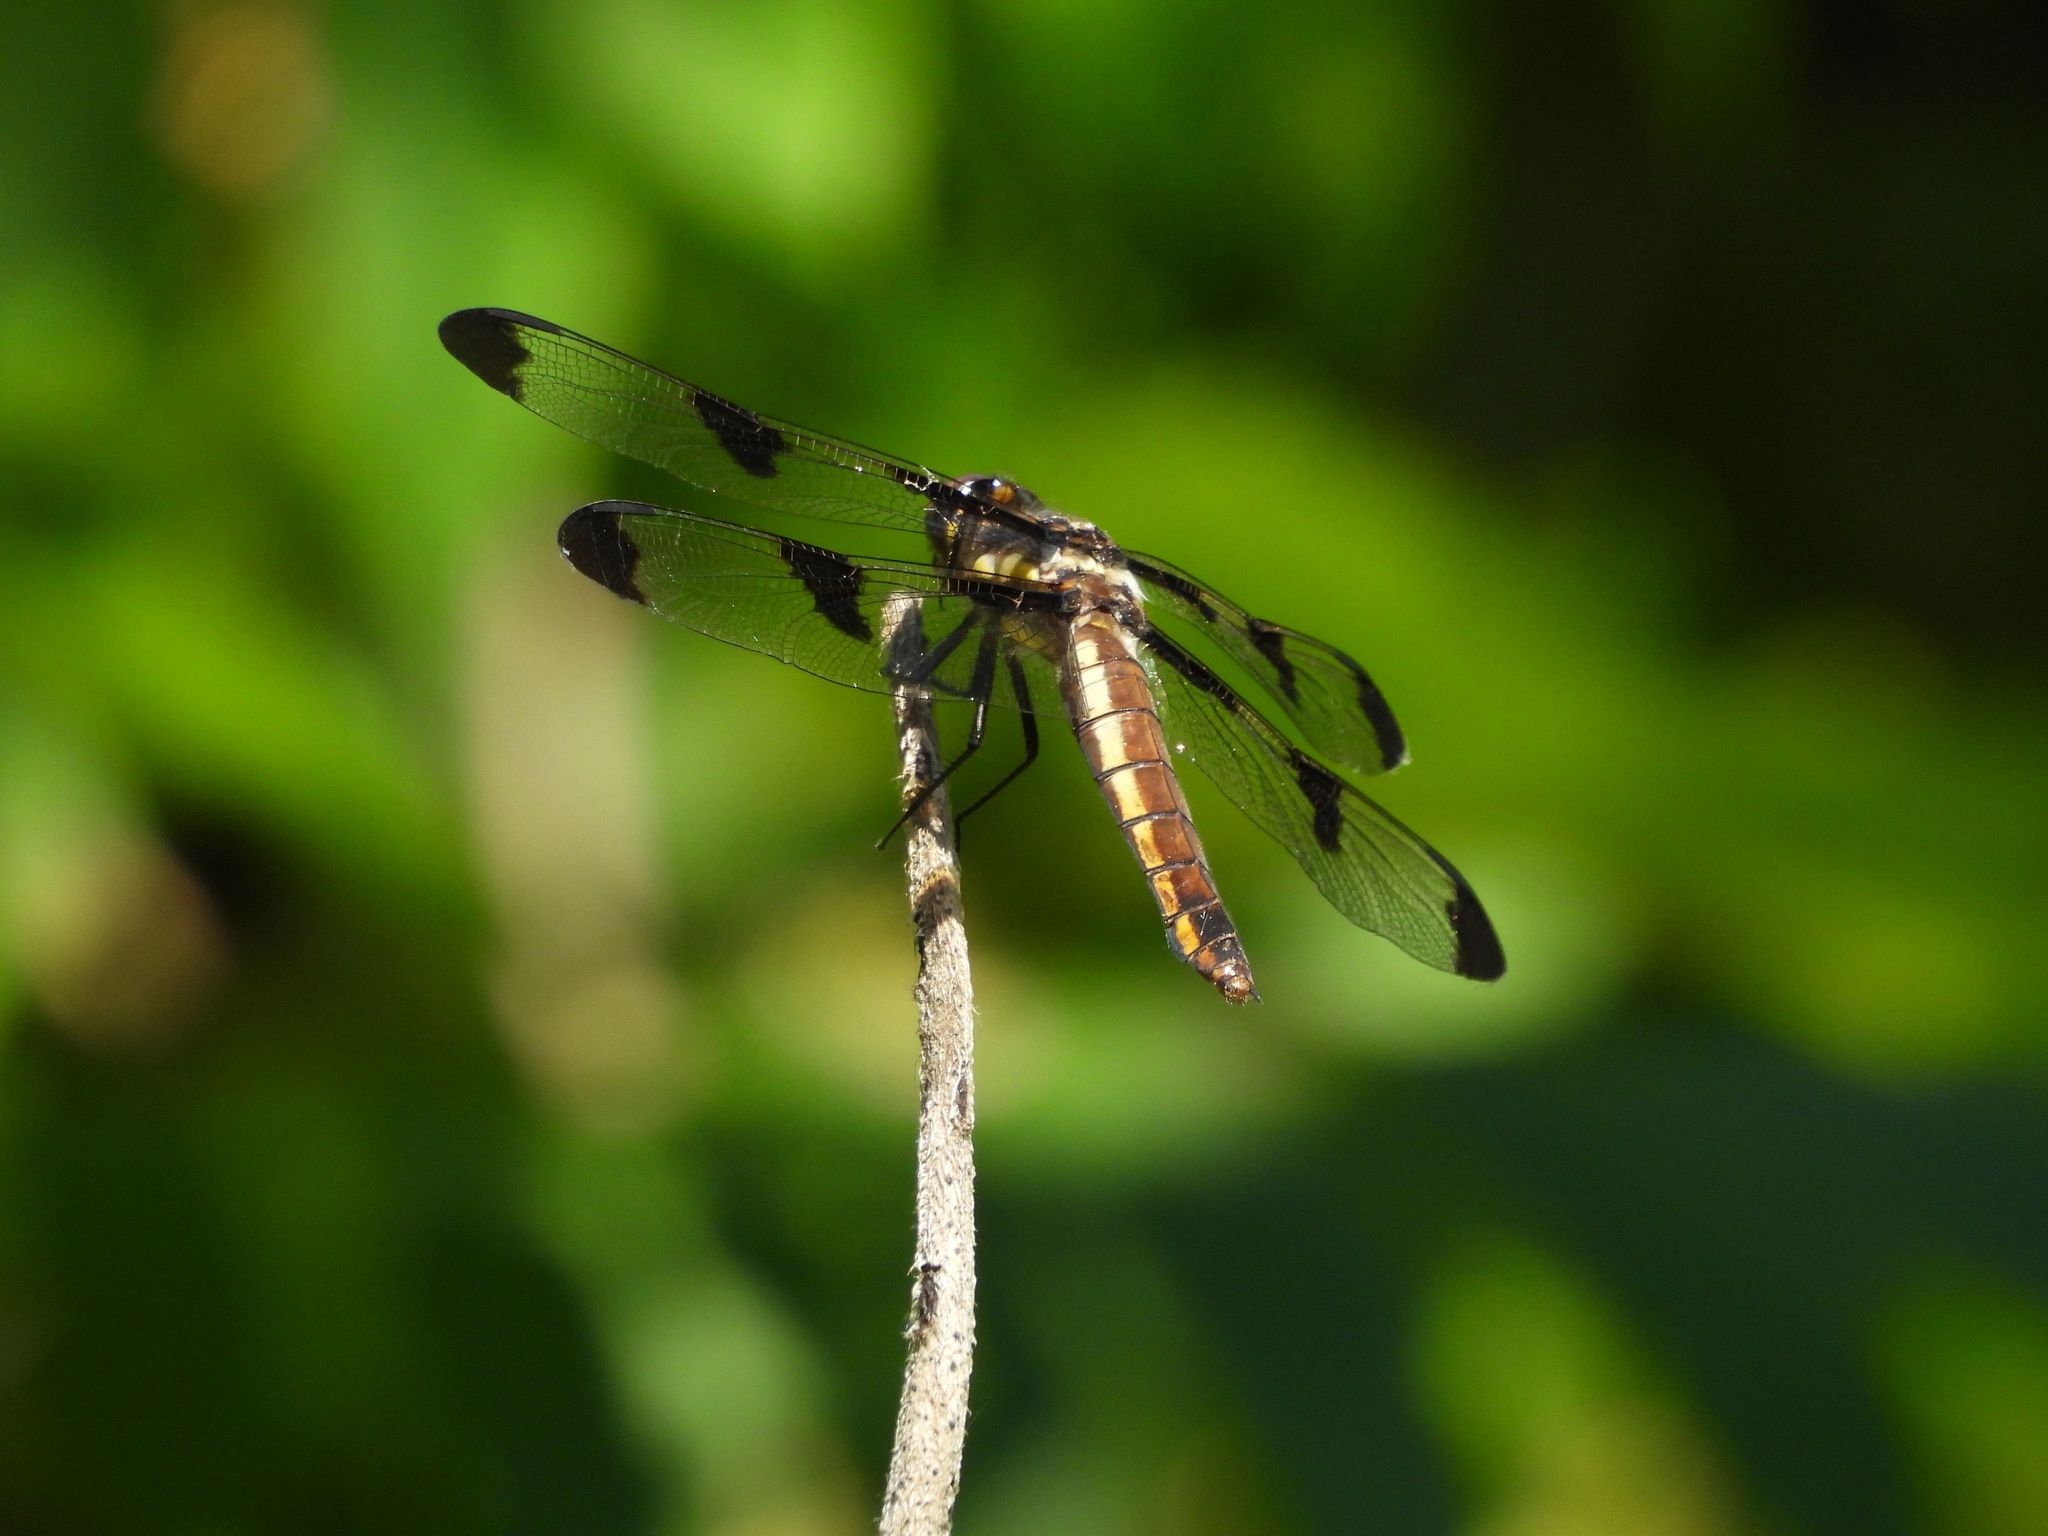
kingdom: Animalia
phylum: Arthropoda
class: Insecta
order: Odonata
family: Libellulidae
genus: Libellula
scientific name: Libellula pulchella
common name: Twelve-spotted skimmer
